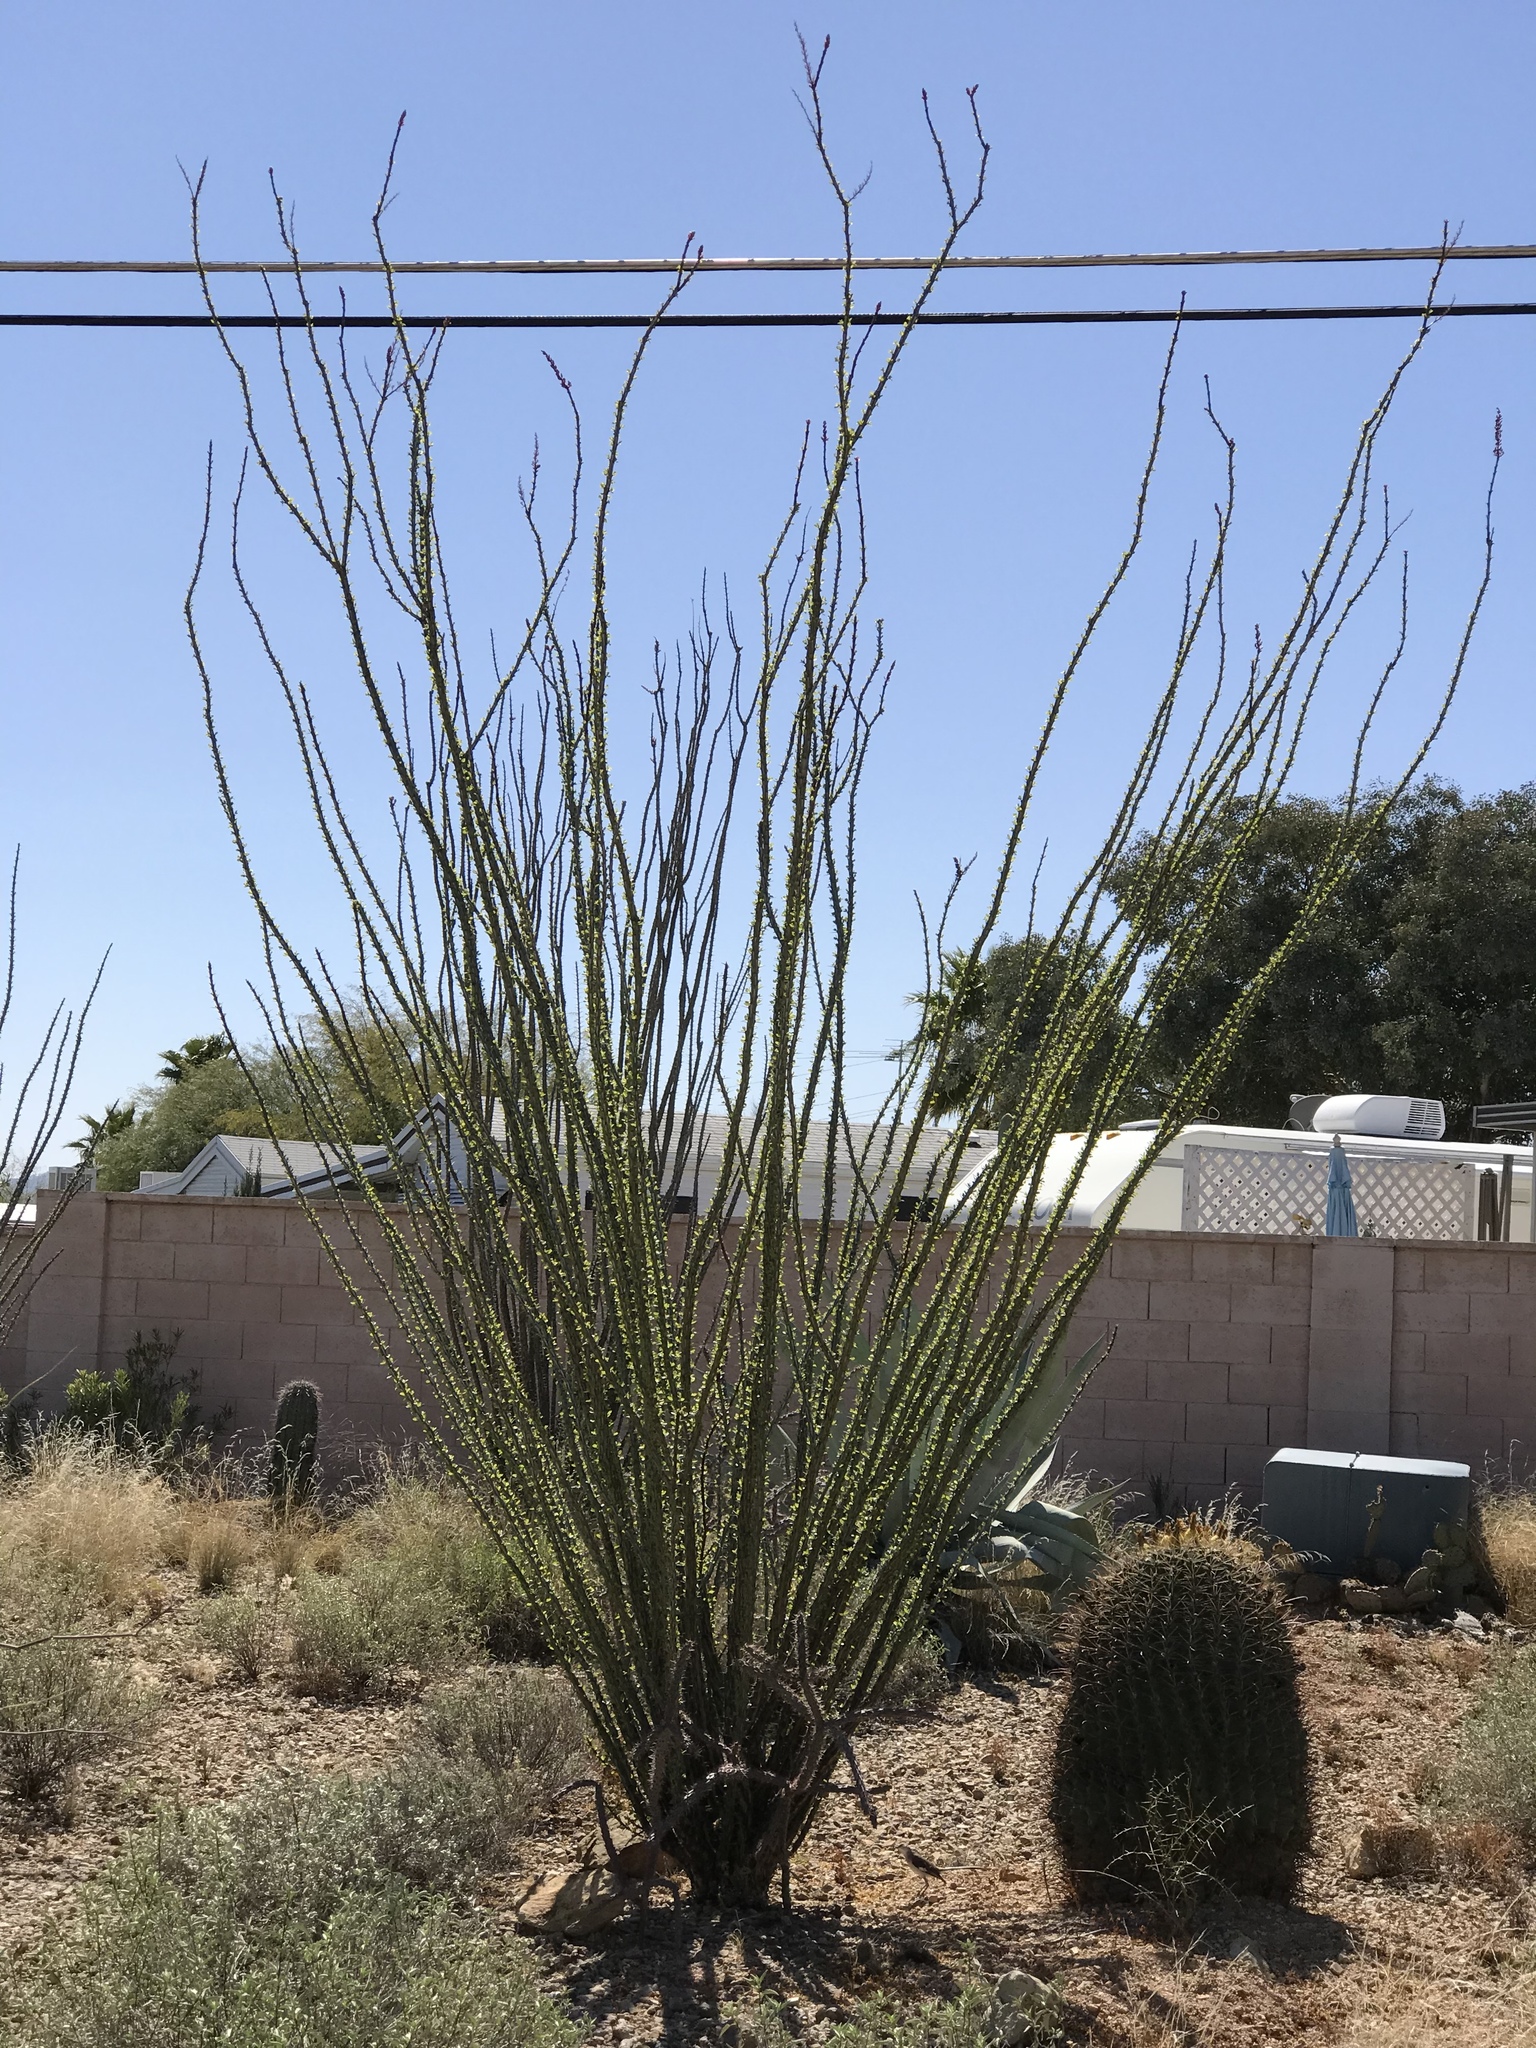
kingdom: Plantae
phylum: Tracheophyta
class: Magnoliopsida
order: Ericales
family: Fouquieriaceae
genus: Fouquieria
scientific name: Fouquieria splendens
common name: Vine-cactus
